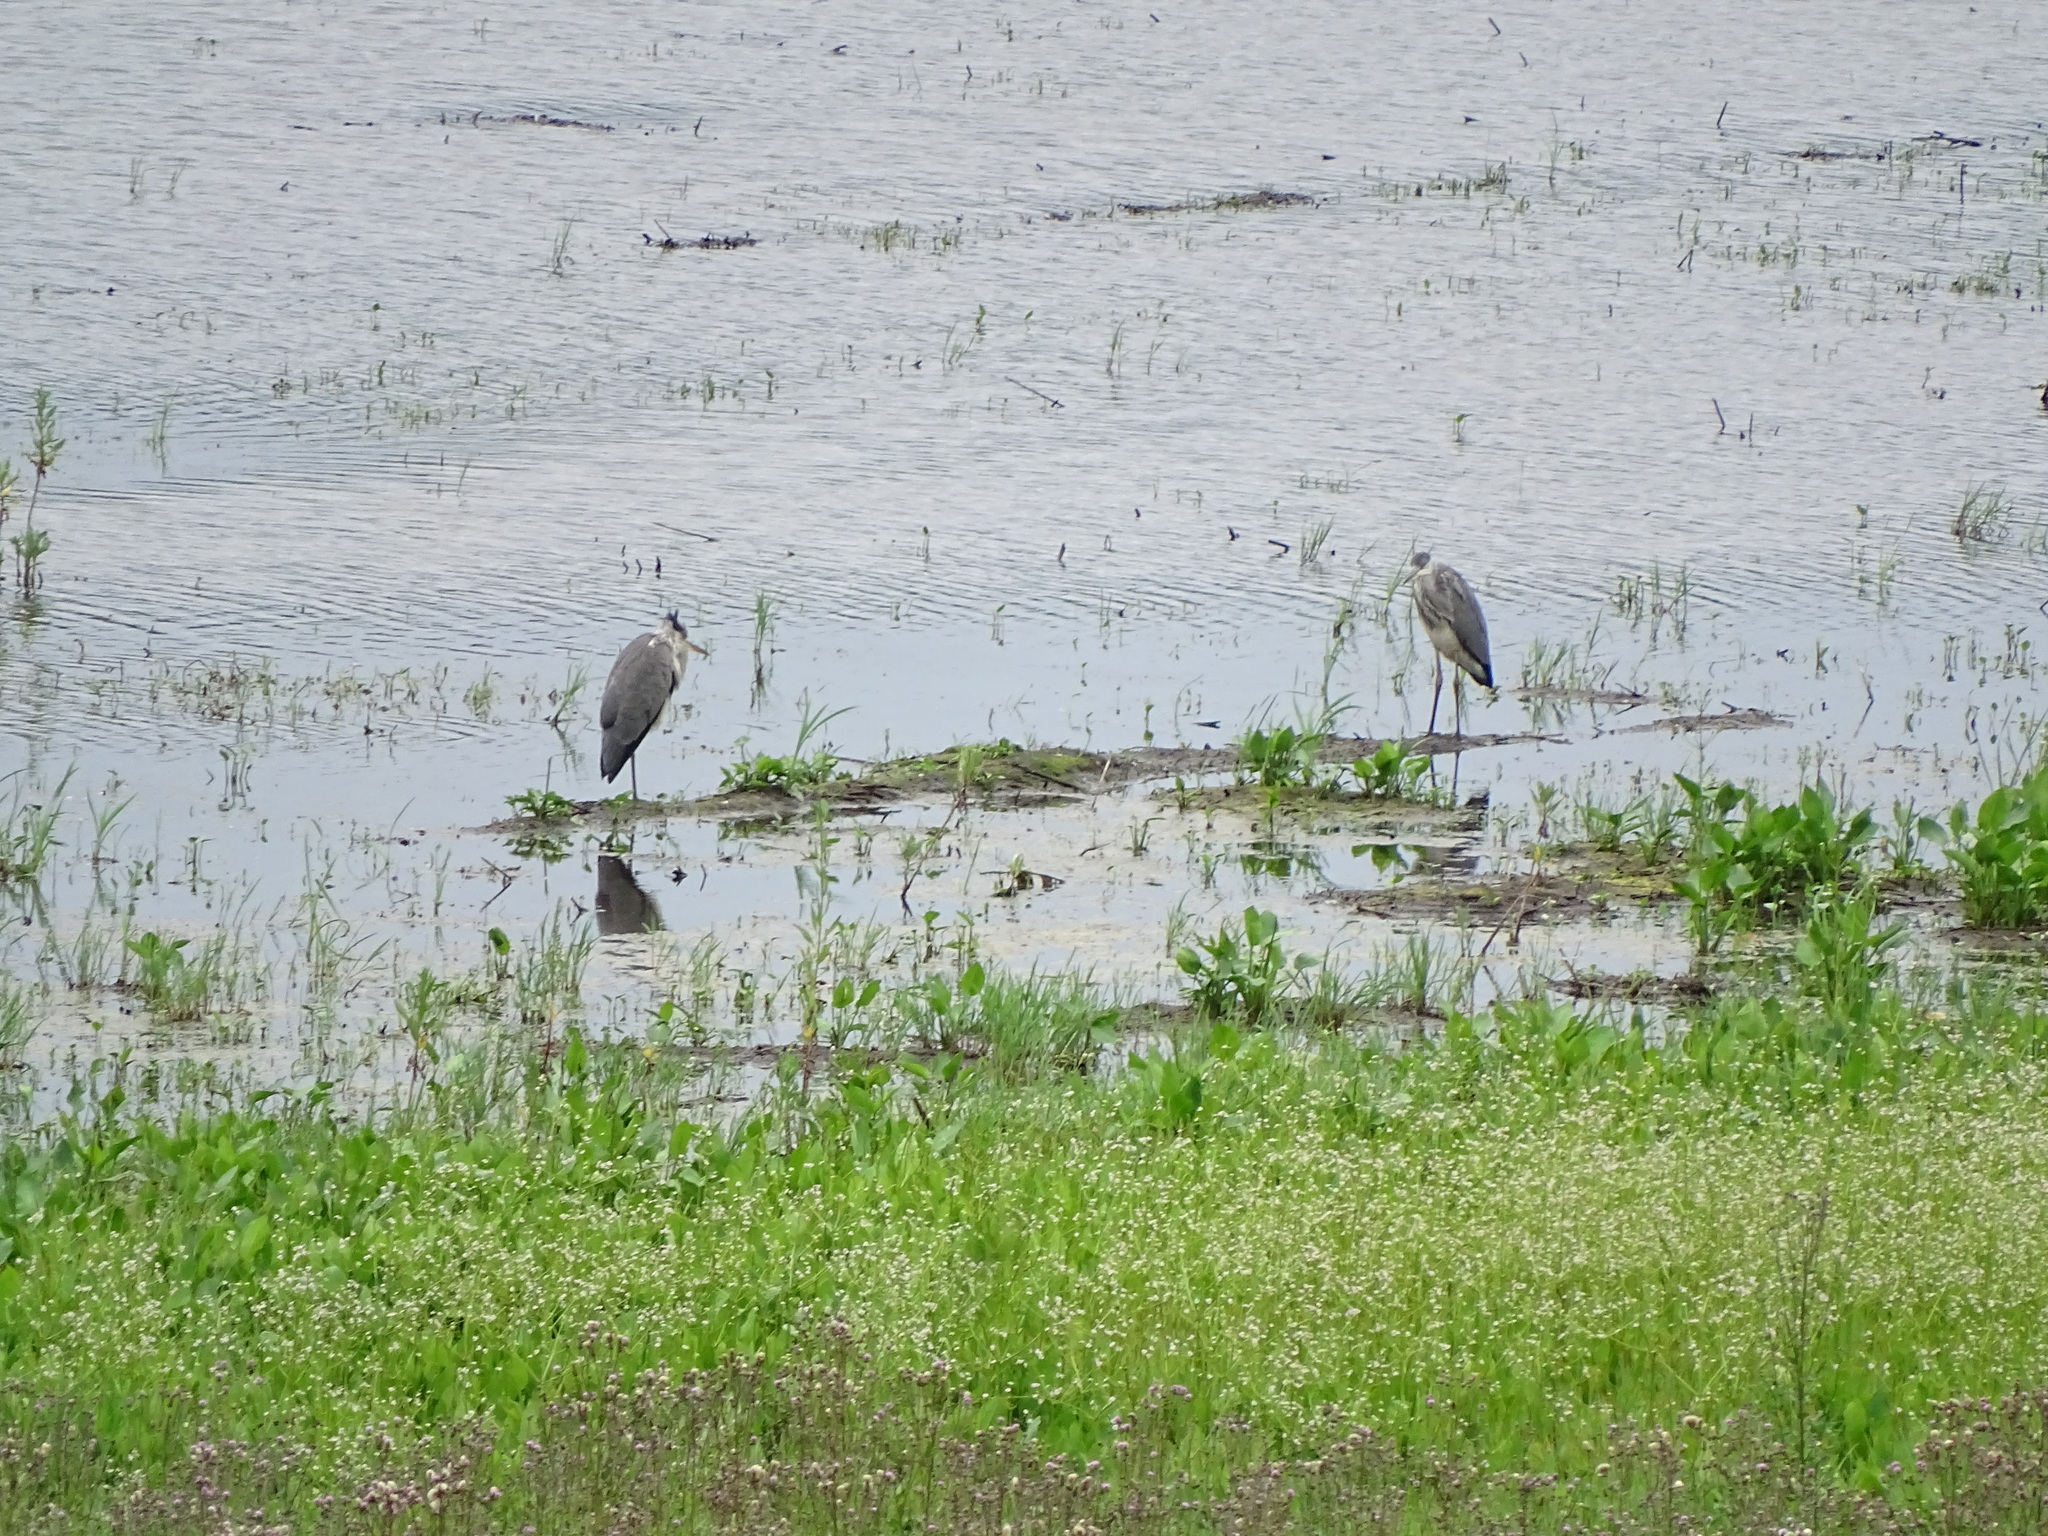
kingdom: Animalia
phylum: Chordata
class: Aves
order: Pelecaniformes
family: Ardeidae
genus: Ardea
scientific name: Ardea cinerea
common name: Grey heron
